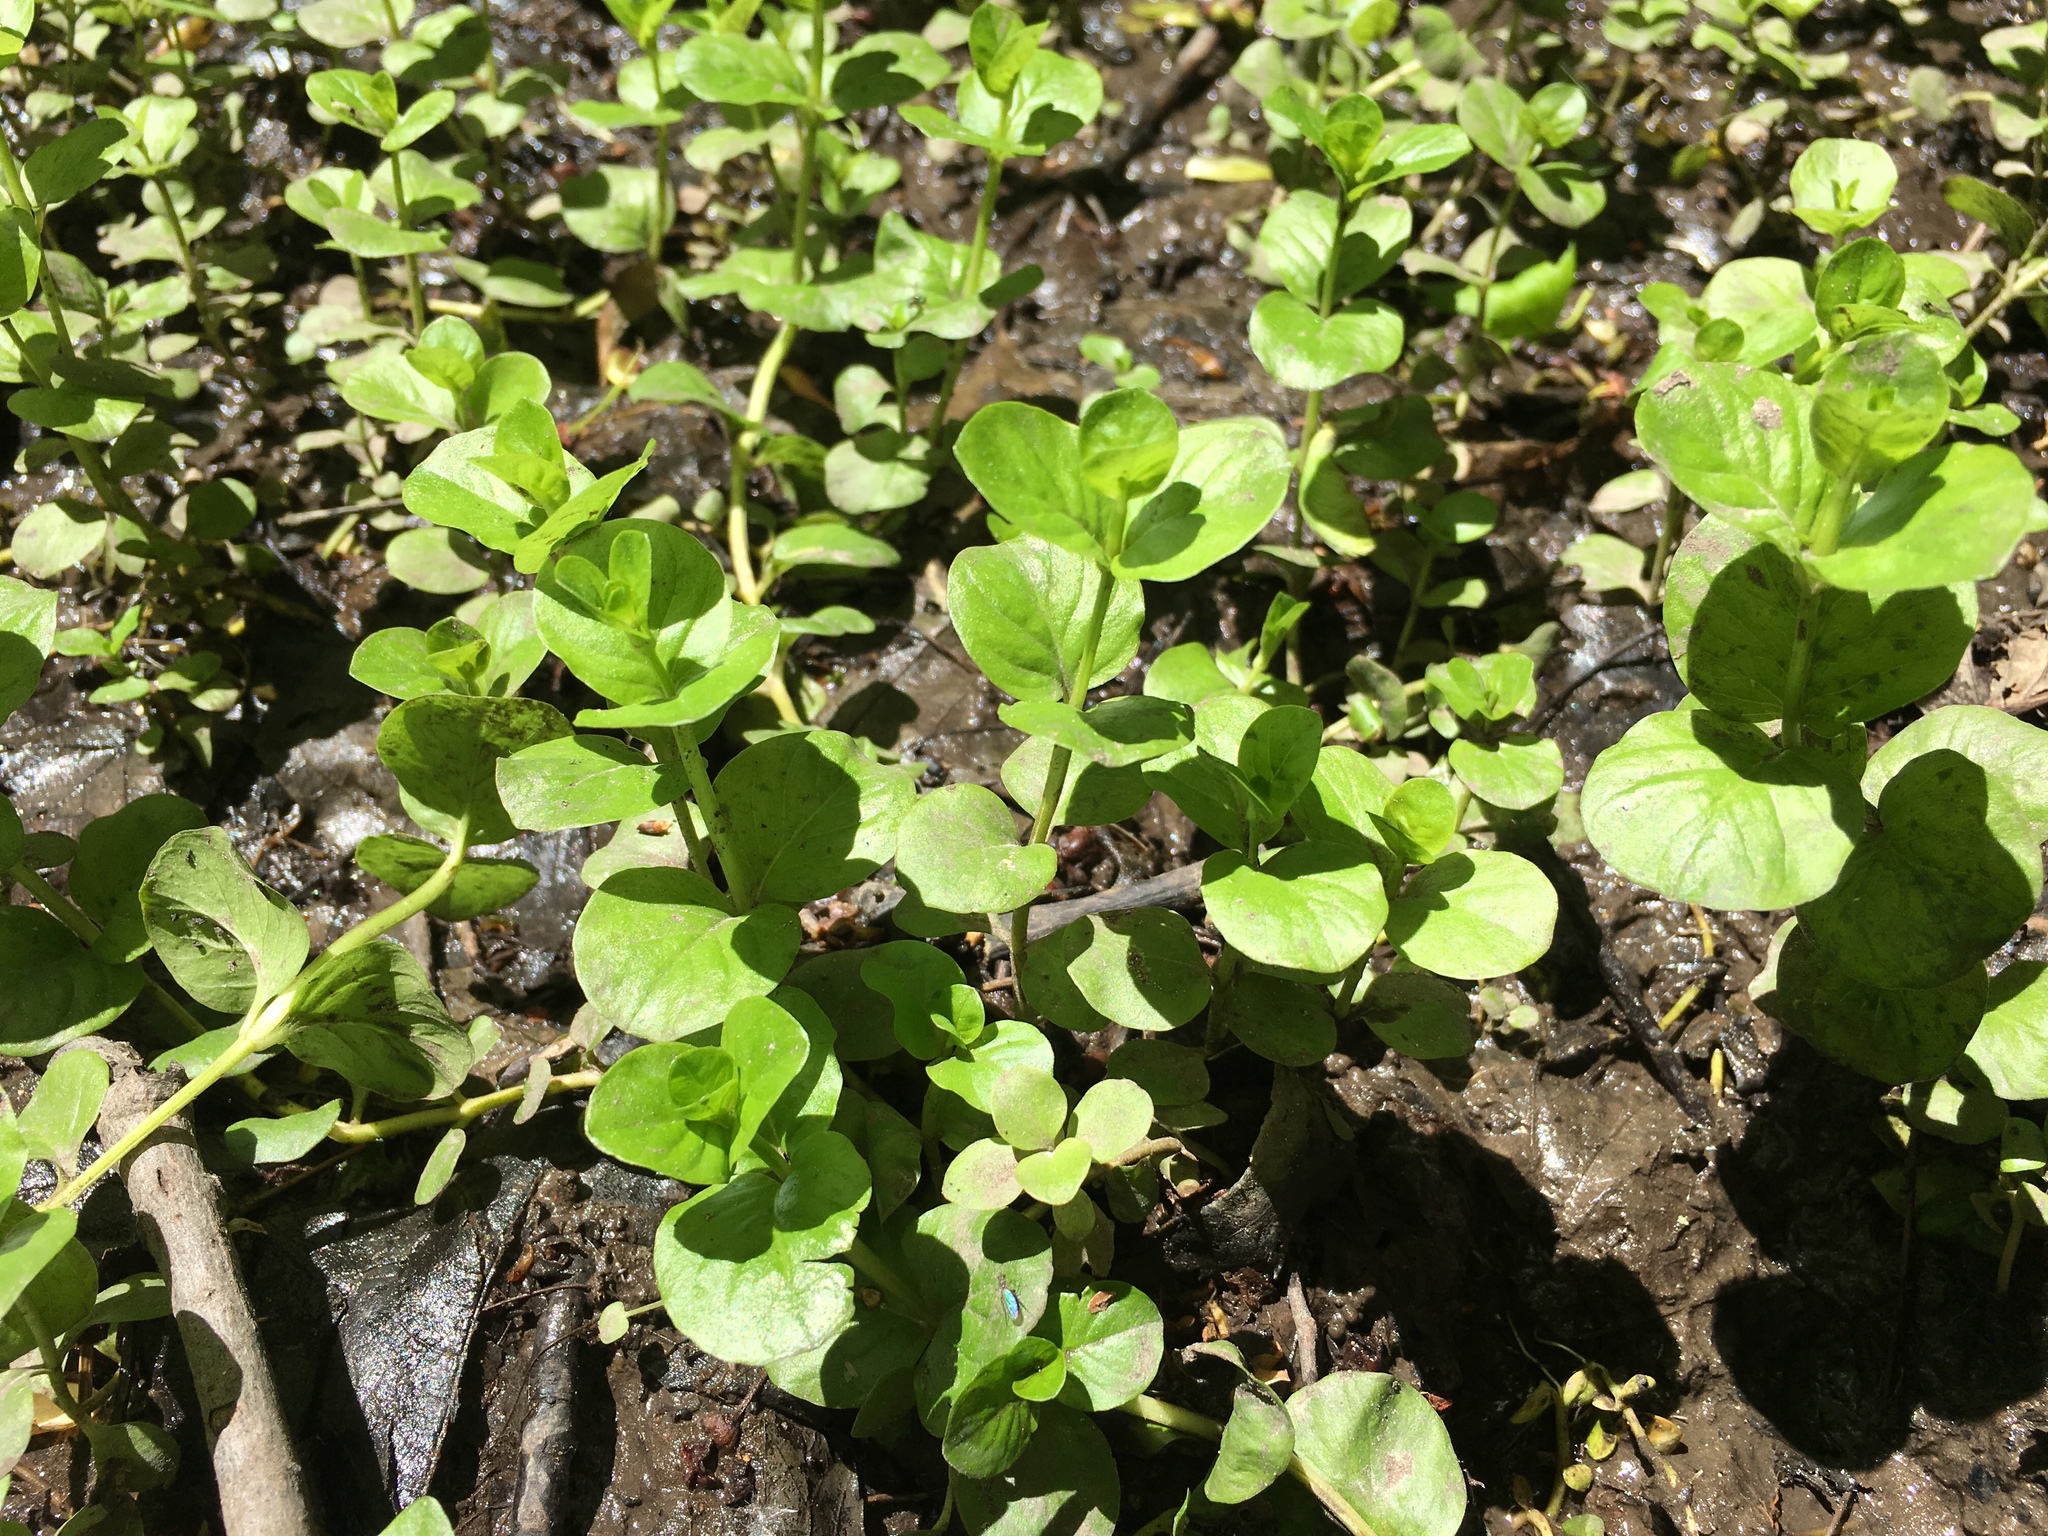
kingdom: Plantae
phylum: Tracheophyta
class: Magnoliopsida
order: Ericales
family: Primulaceae
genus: Lysimachia
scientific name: Lysimachia nummularia
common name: Moneywort
